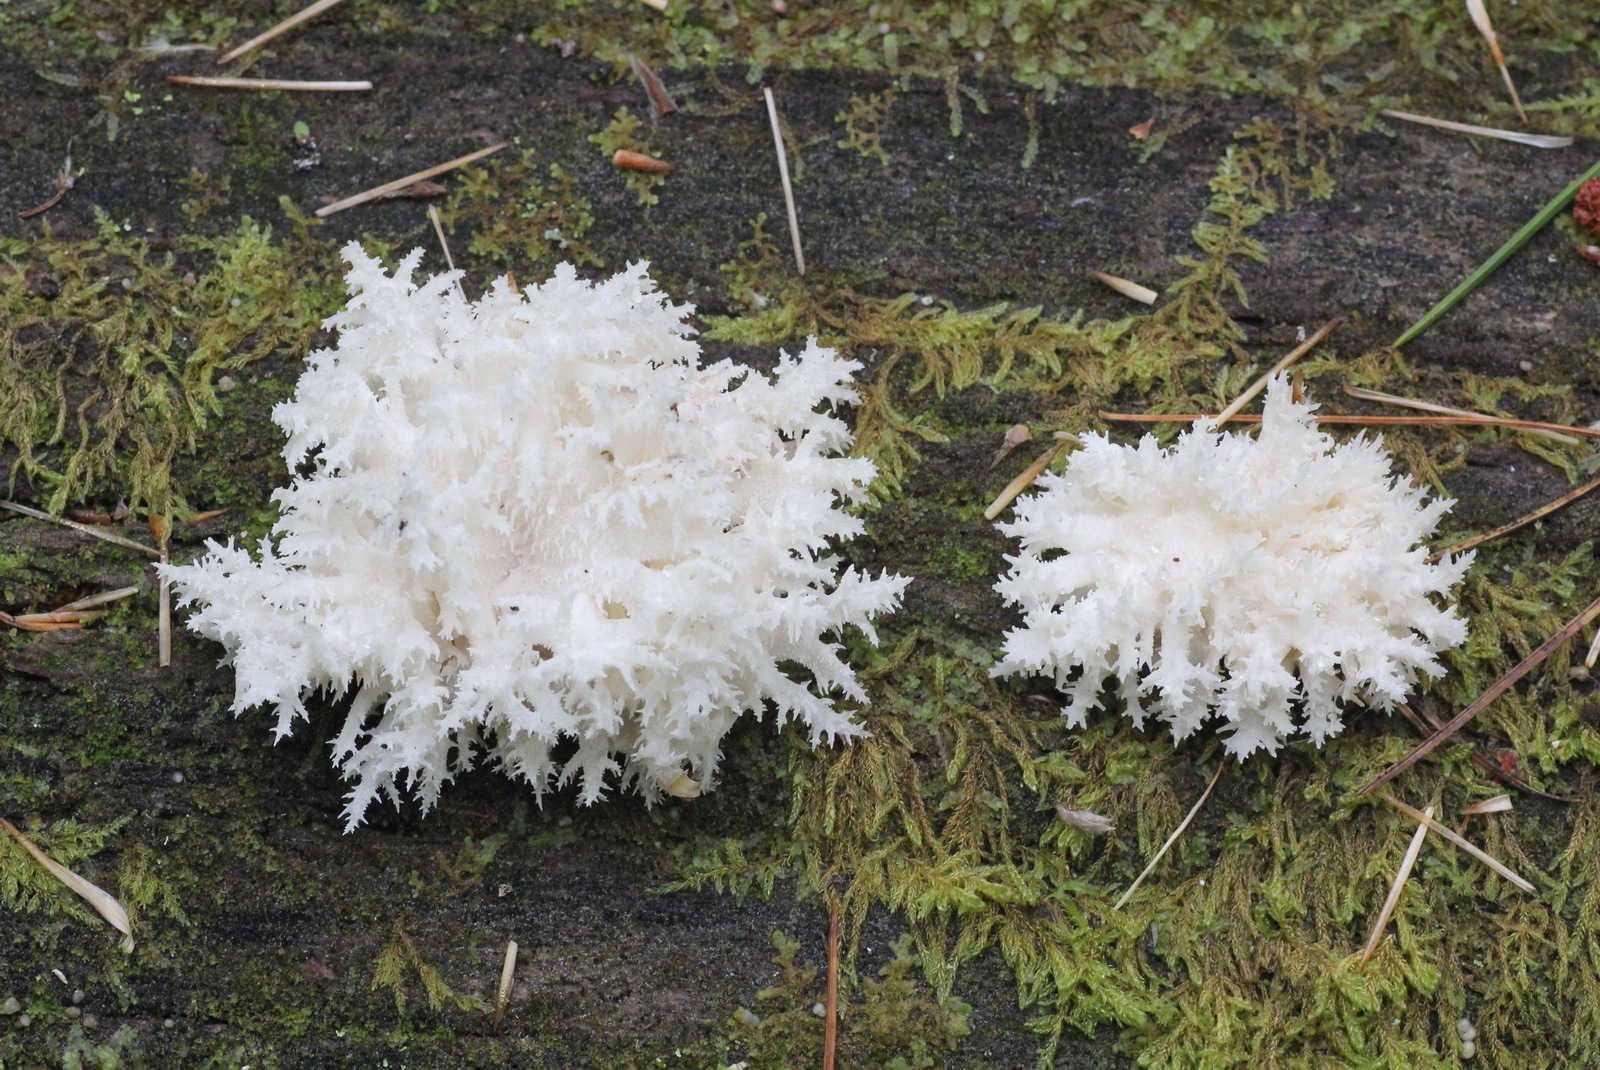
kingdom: Fungi
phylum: Basidiomycota
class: Agaricomycetes
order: Russulales
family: Hericiaceae
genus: Hericium
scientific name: Hericium coralloides
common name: Coral tooth
